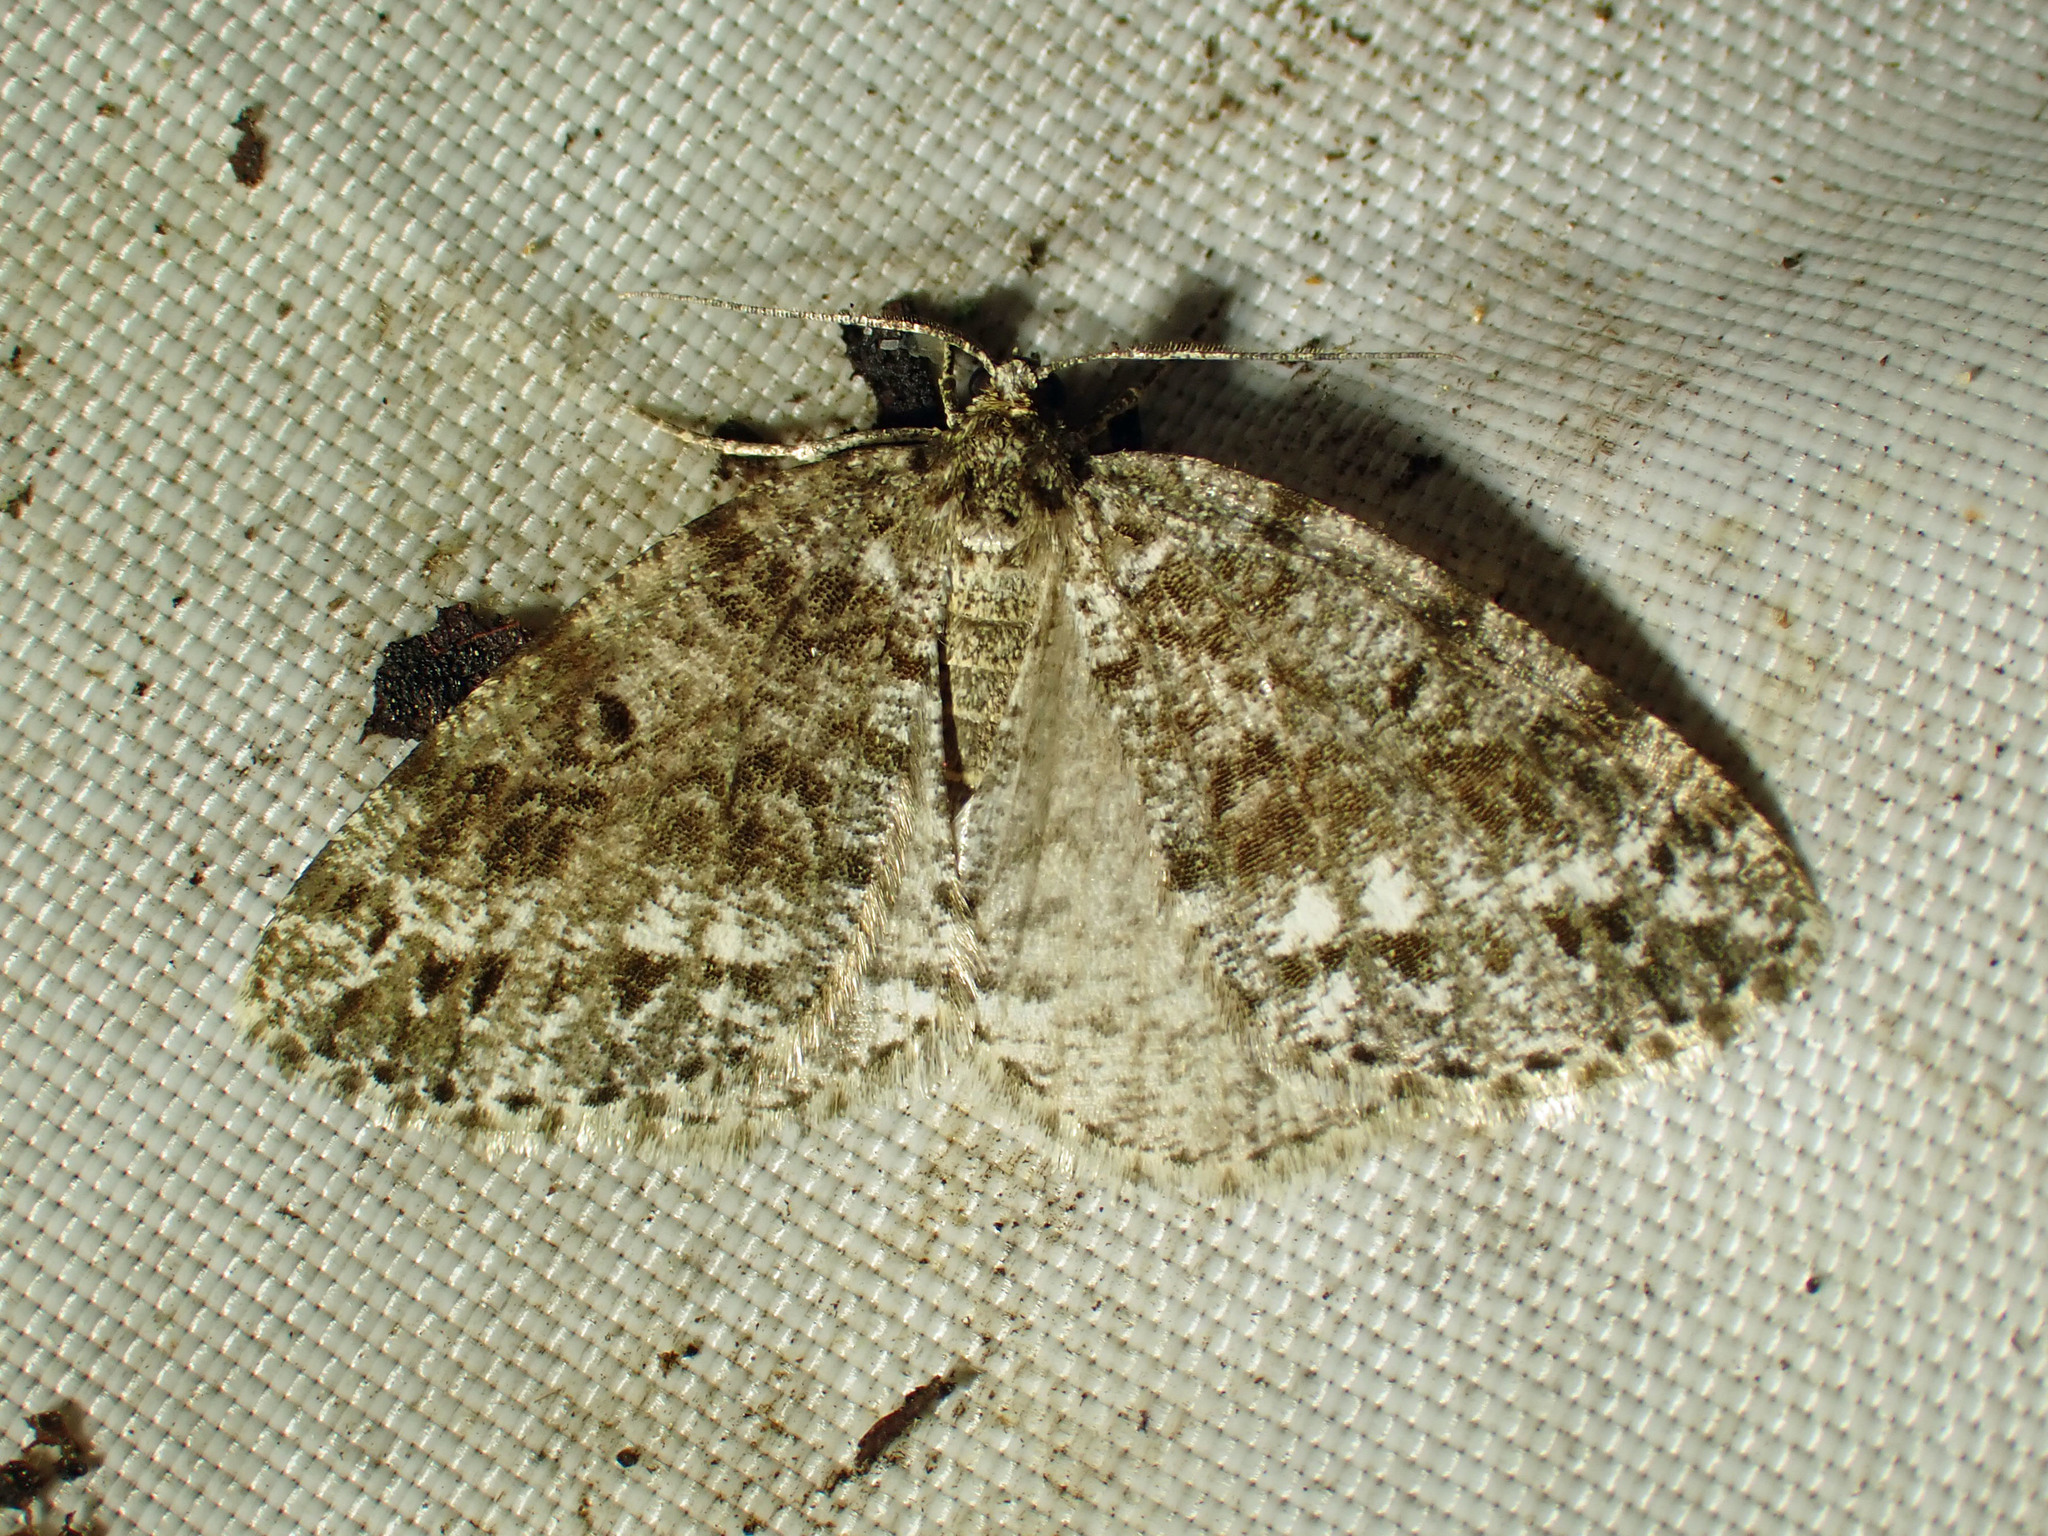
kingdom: Animalia
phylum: Arthropoda
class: Insecta
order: Lepidoptera
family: Geometridae
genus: Orthofidonia
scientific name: Orthofidonia exornata
